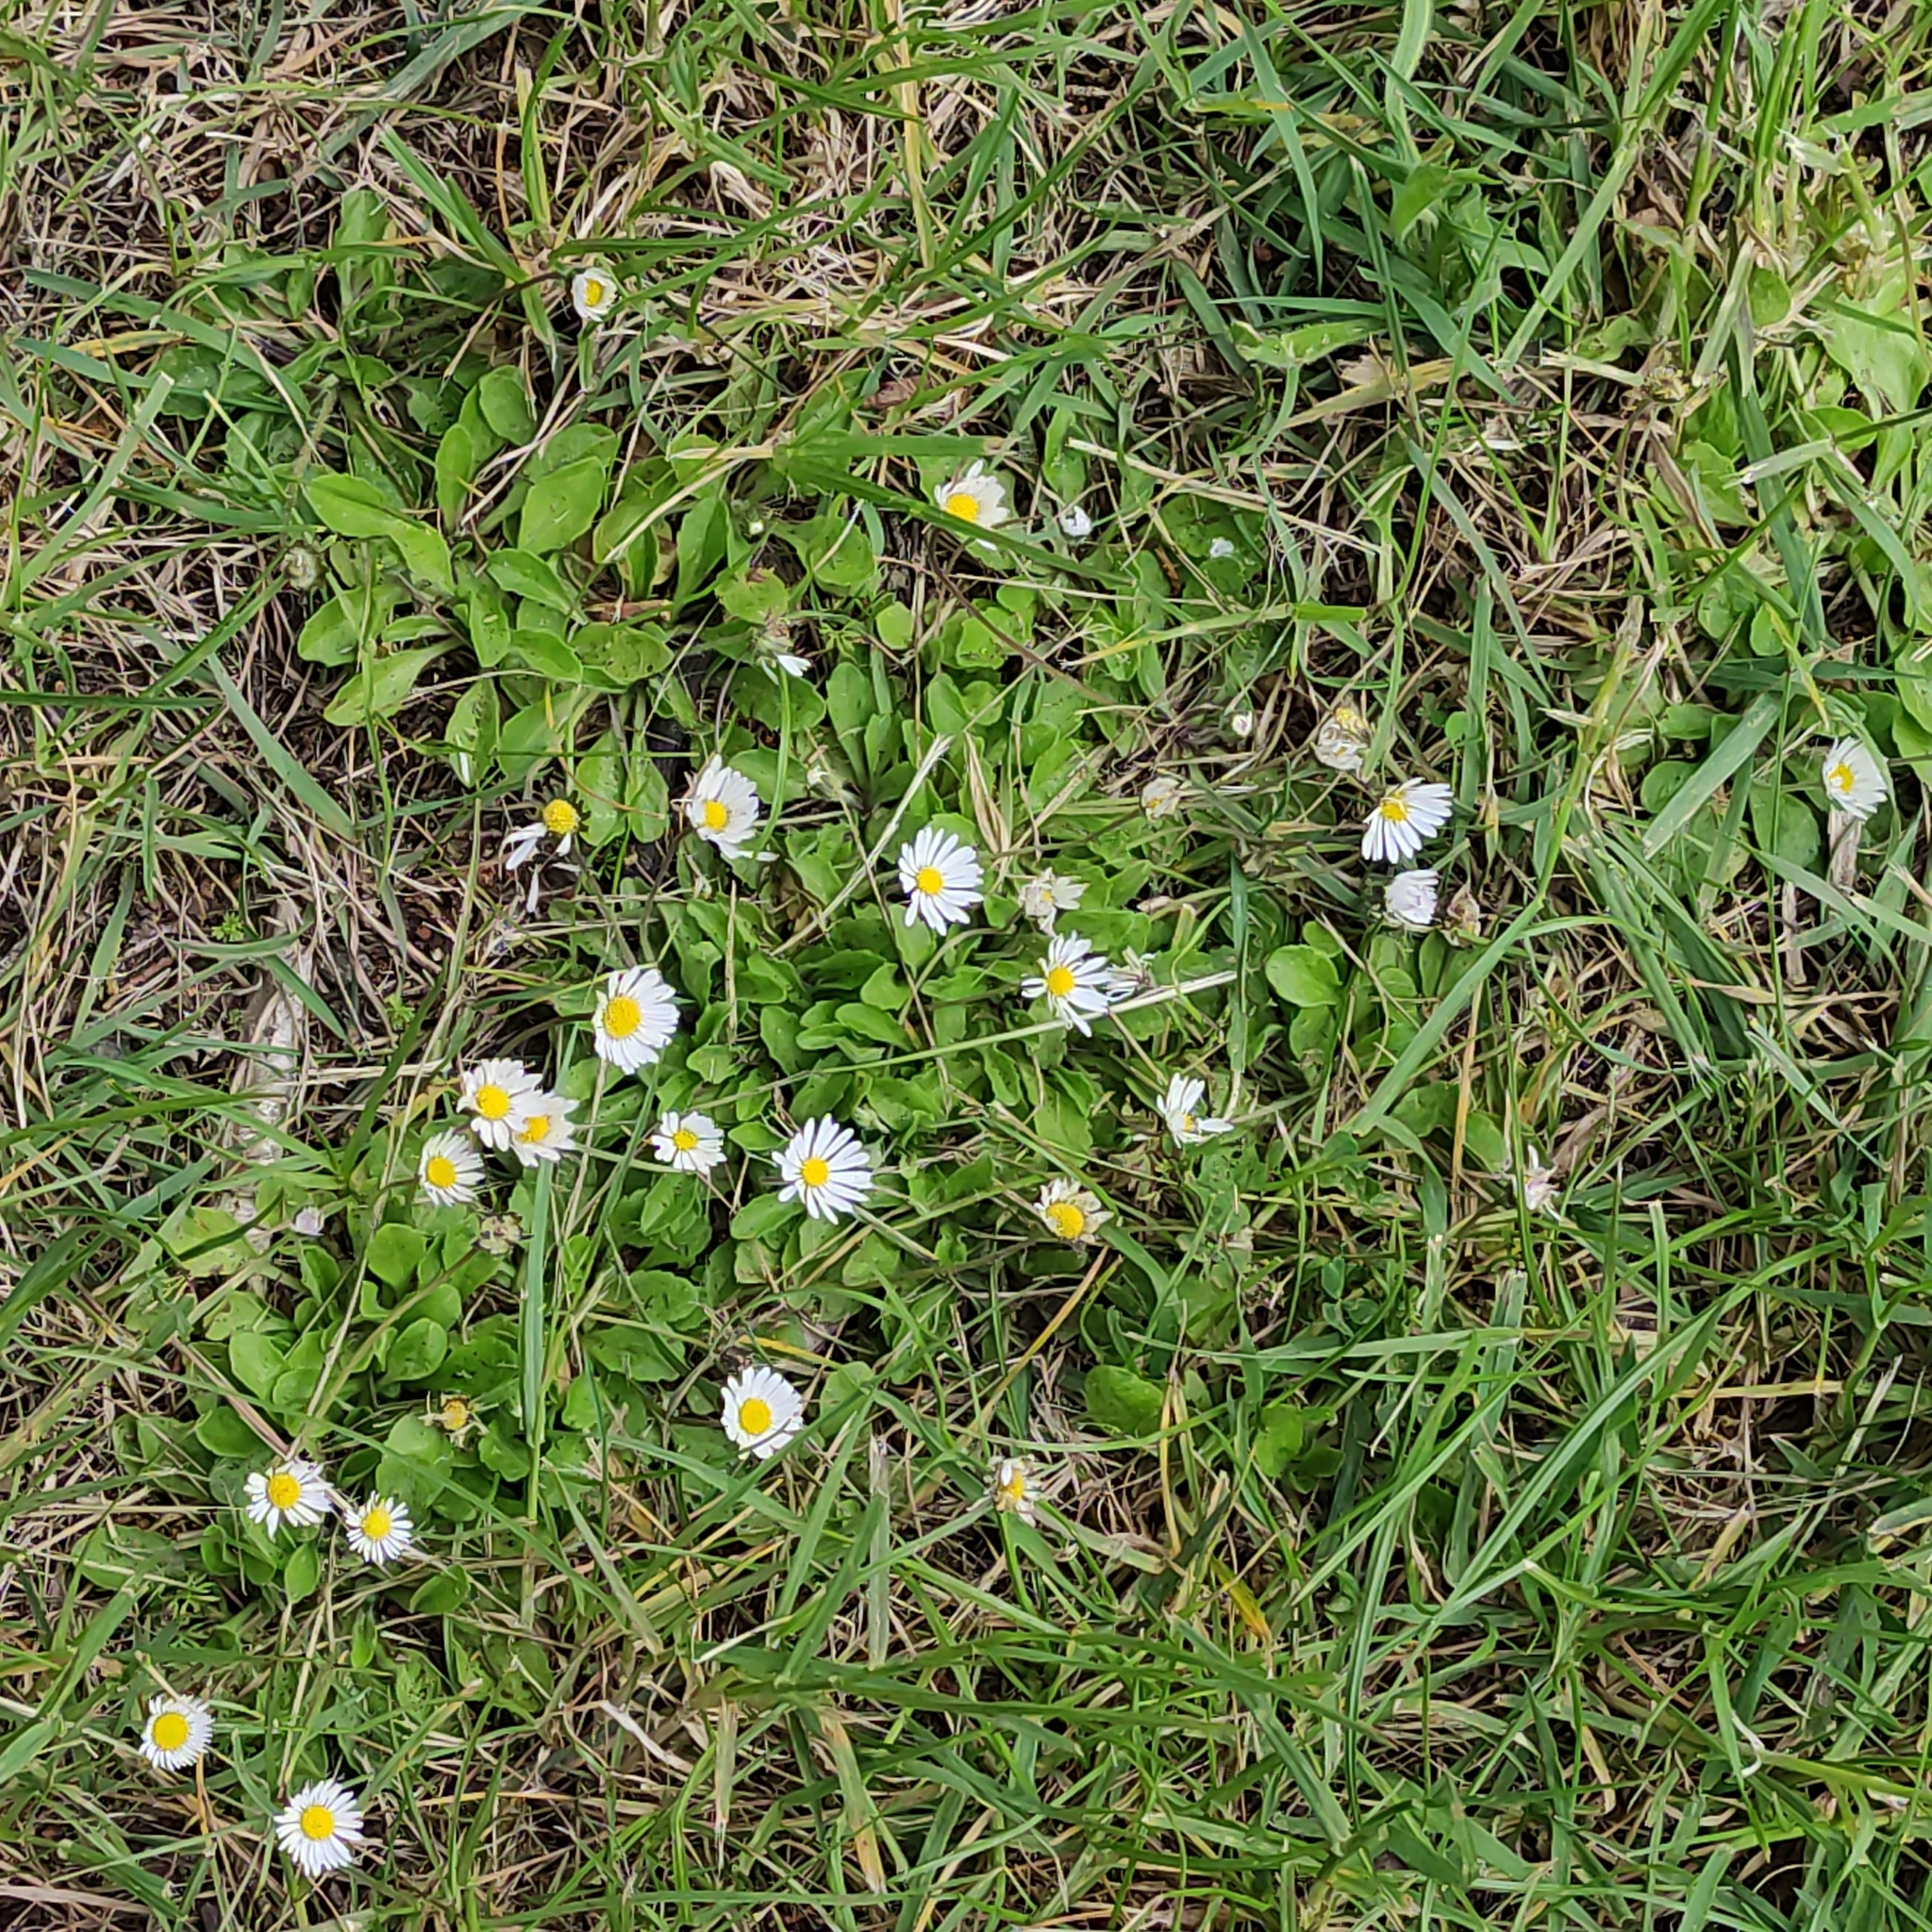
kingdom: Plantae
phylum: Tracheophyta
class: Magnoliopsida
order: Asterales
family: Asteraceae
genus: Bellis
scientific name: Bellis perennis
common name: Lawndaisy
